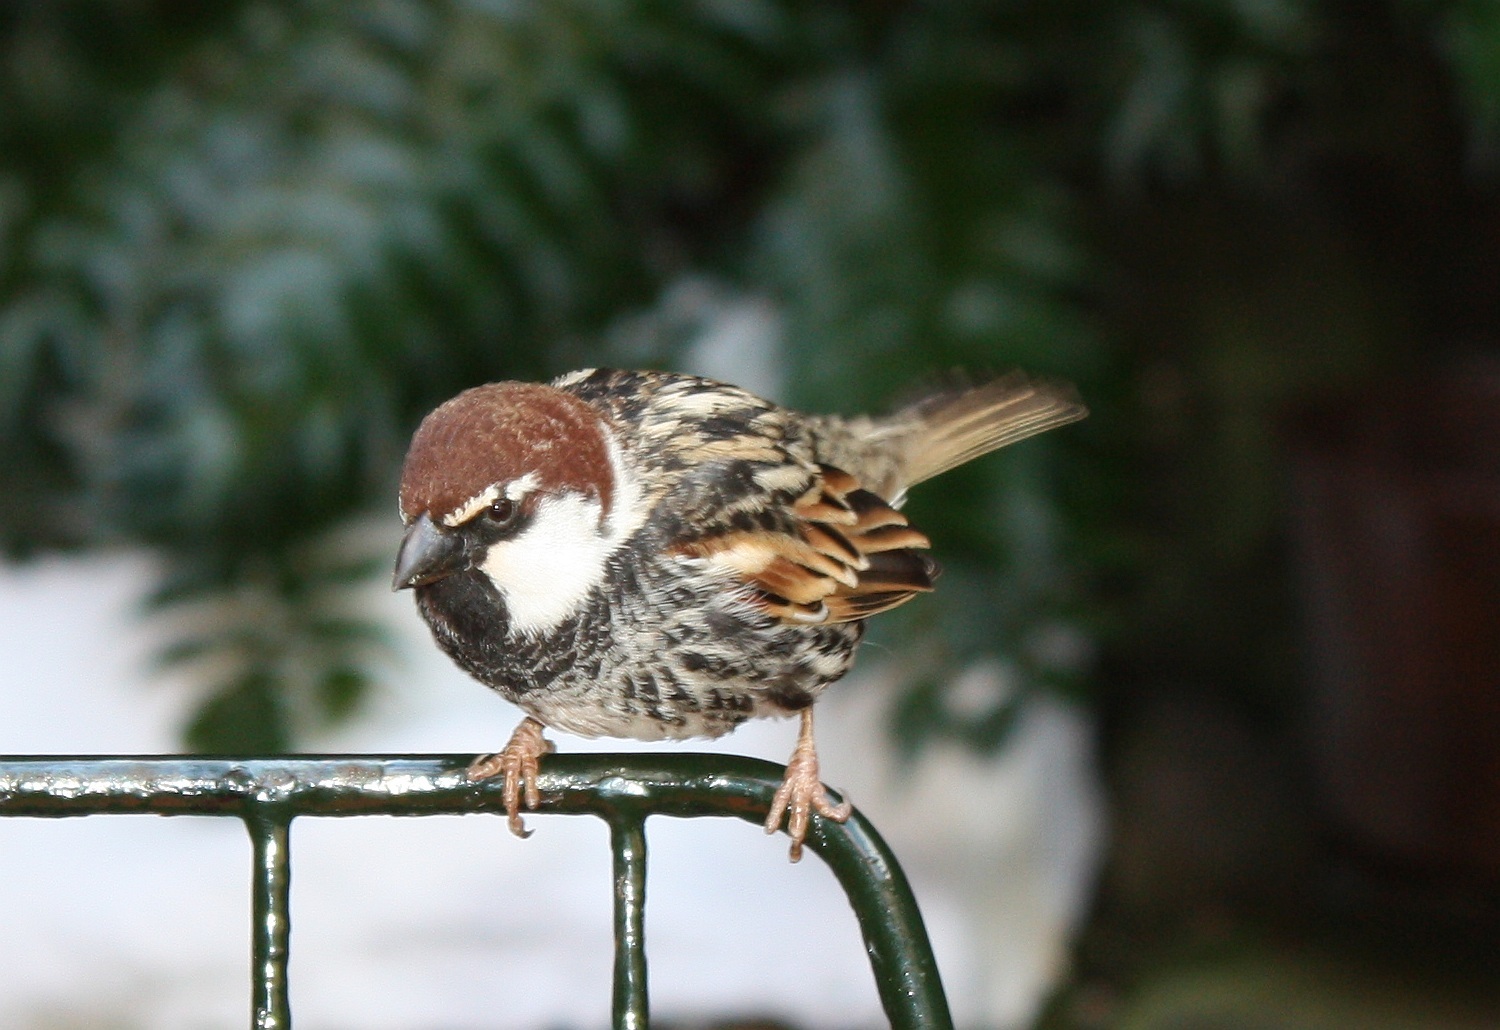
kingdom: Animalia
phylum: Chordata
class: Aves
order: Passeriformes
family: Passeridae
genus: Passer
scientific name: Passer hispaniolensis
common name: Spanish sparrow
